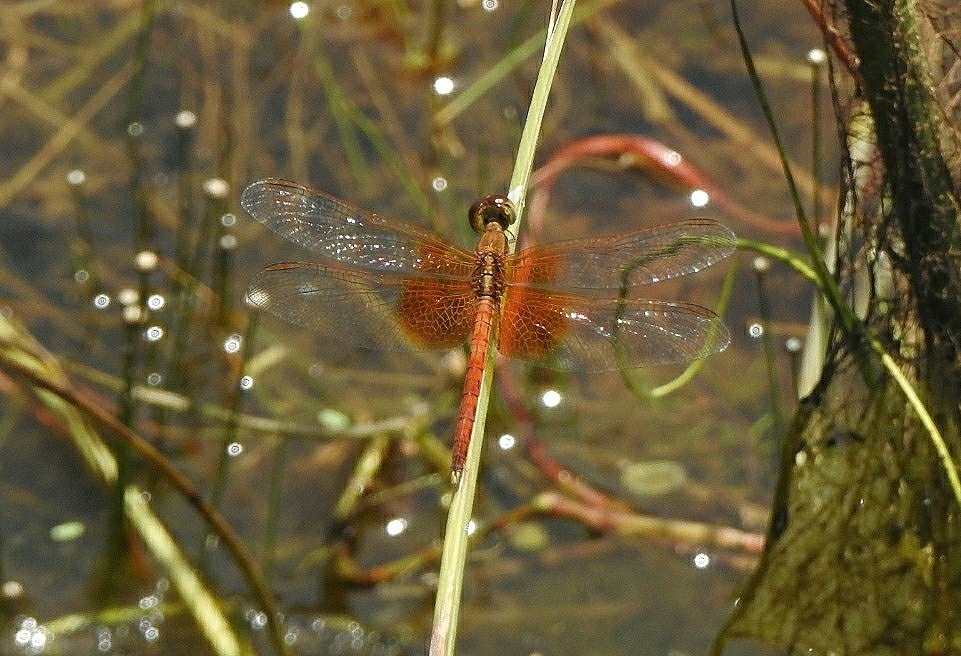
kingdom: Animalia
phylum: Arthropoda
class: Insecta
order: Odonata
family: Libellulidae
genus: Neurothemis
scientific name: Neurothemis intermedia
